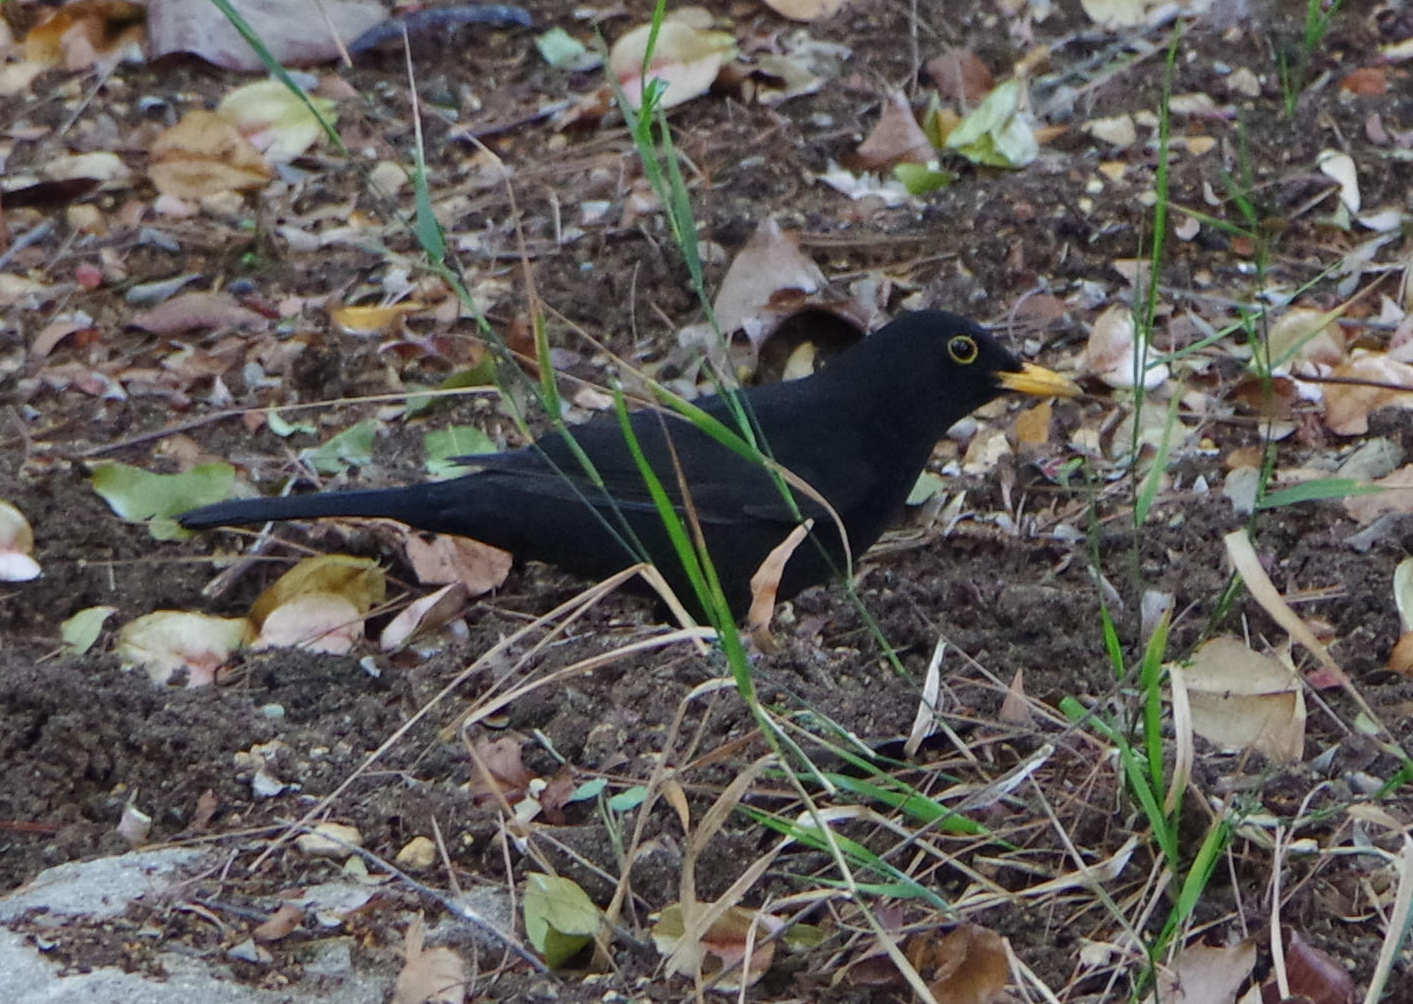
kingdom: Animalia
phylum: Chordata
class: Aves
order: Passeriformes
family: Turdidae
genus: Turdus
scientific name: Turdus merula
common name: Common blackbird
